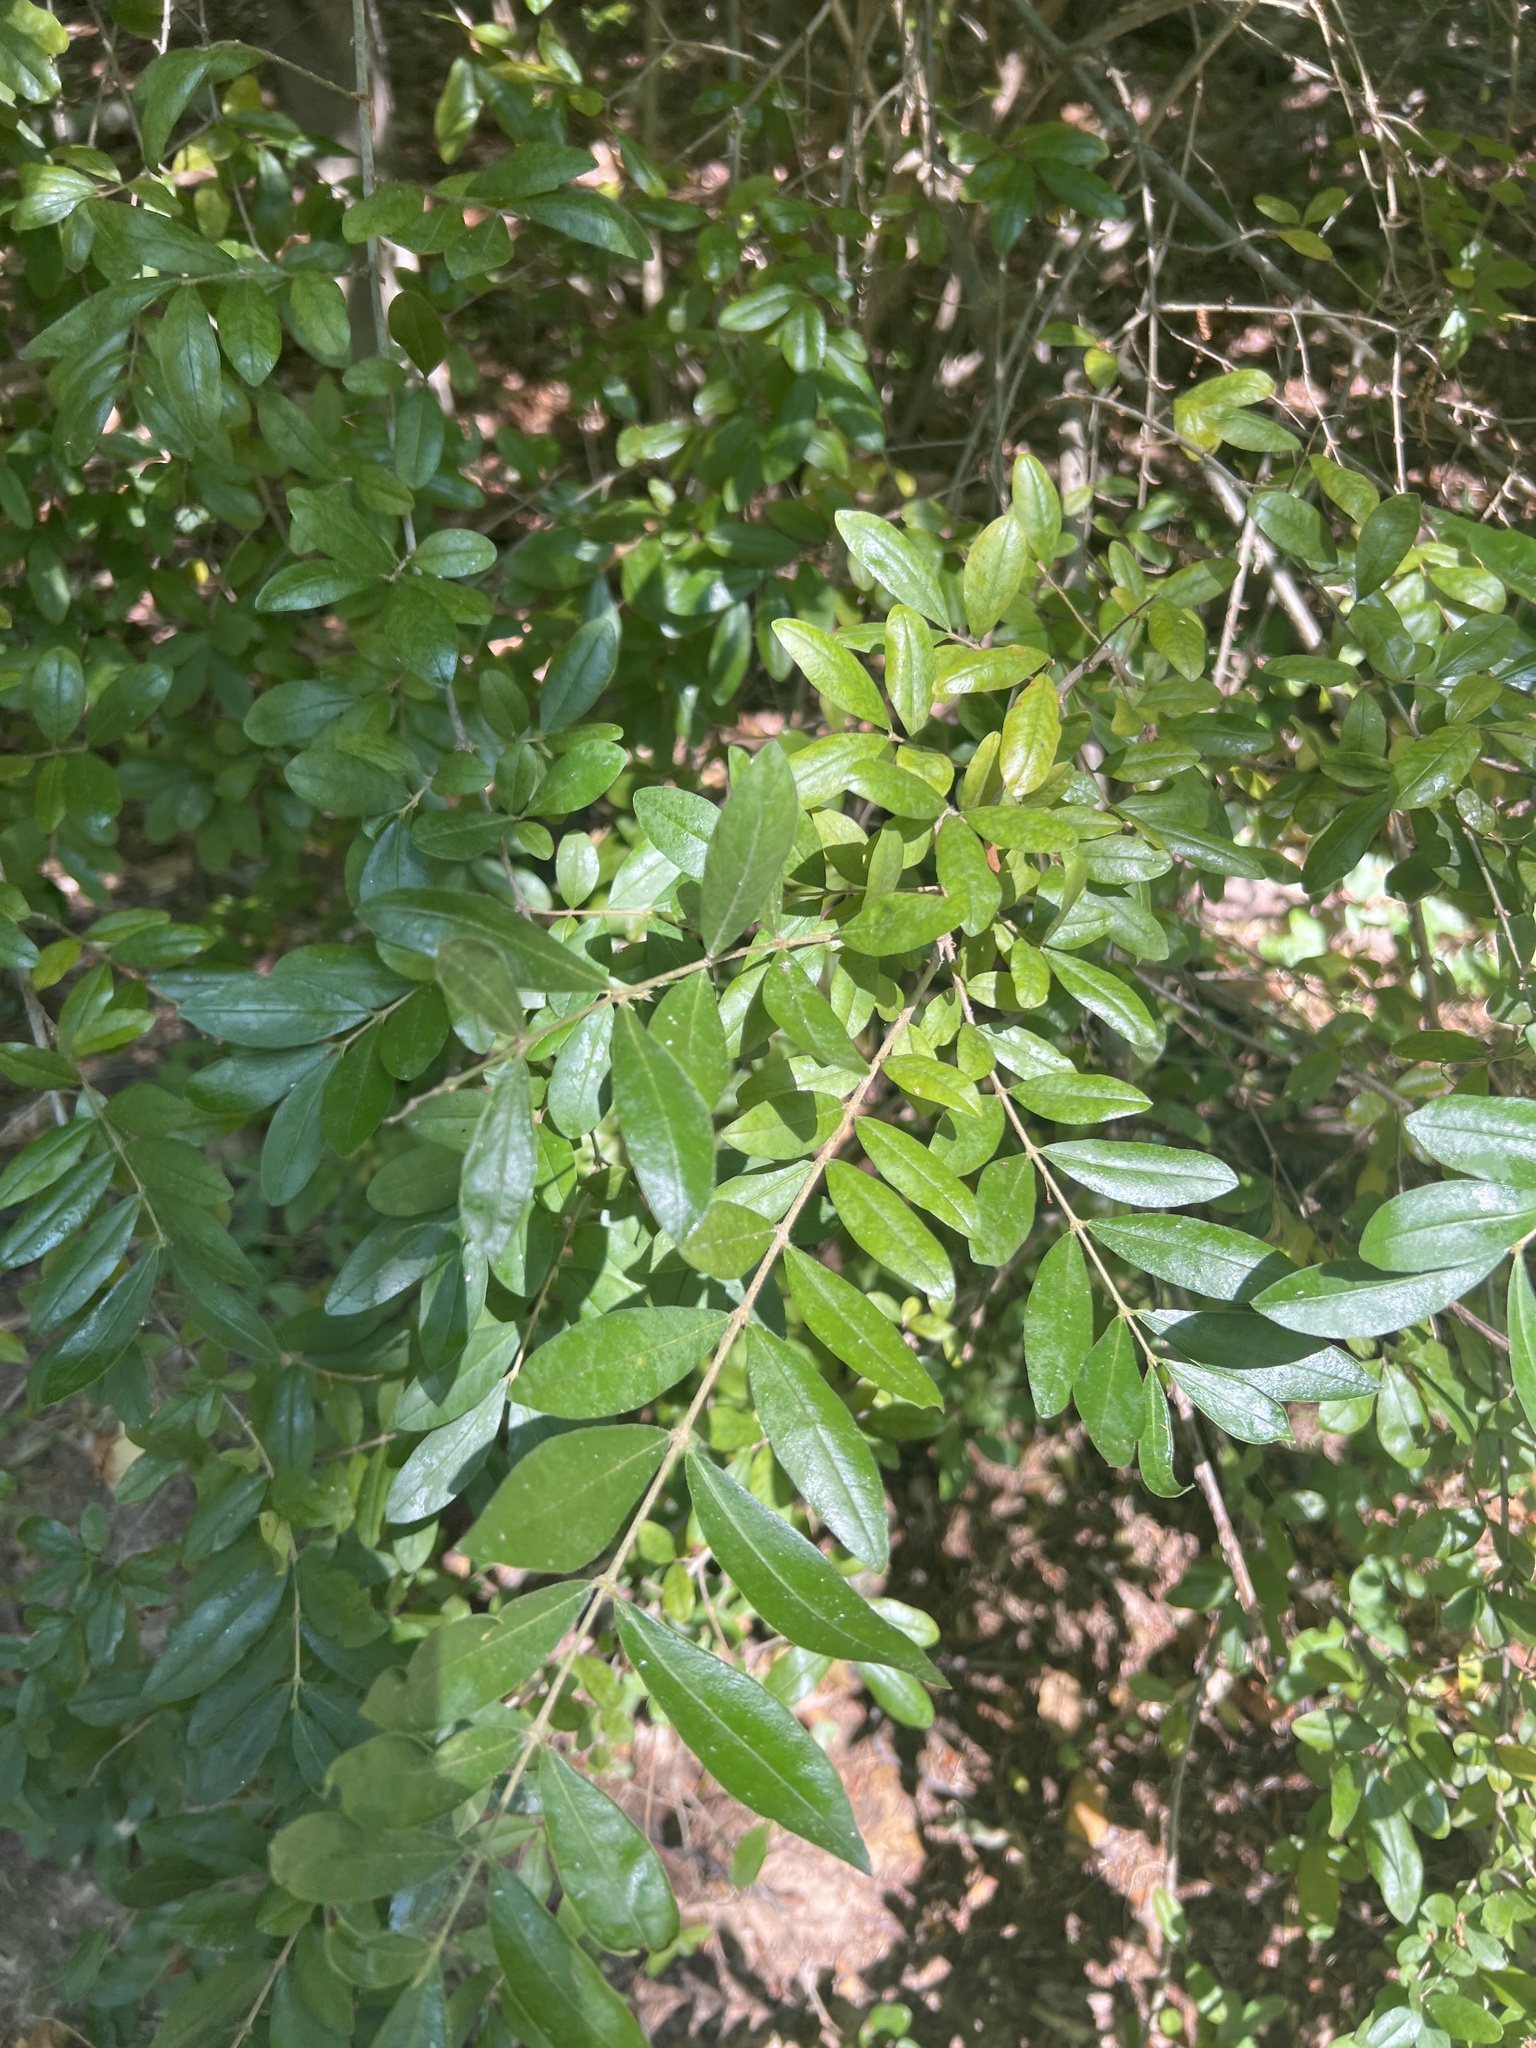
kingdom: Plantae
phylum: Tracheophyta
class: Magnoliopsida
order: Lamiales
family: Oleaceae
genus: Ligustrum
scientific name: Ligustrum
